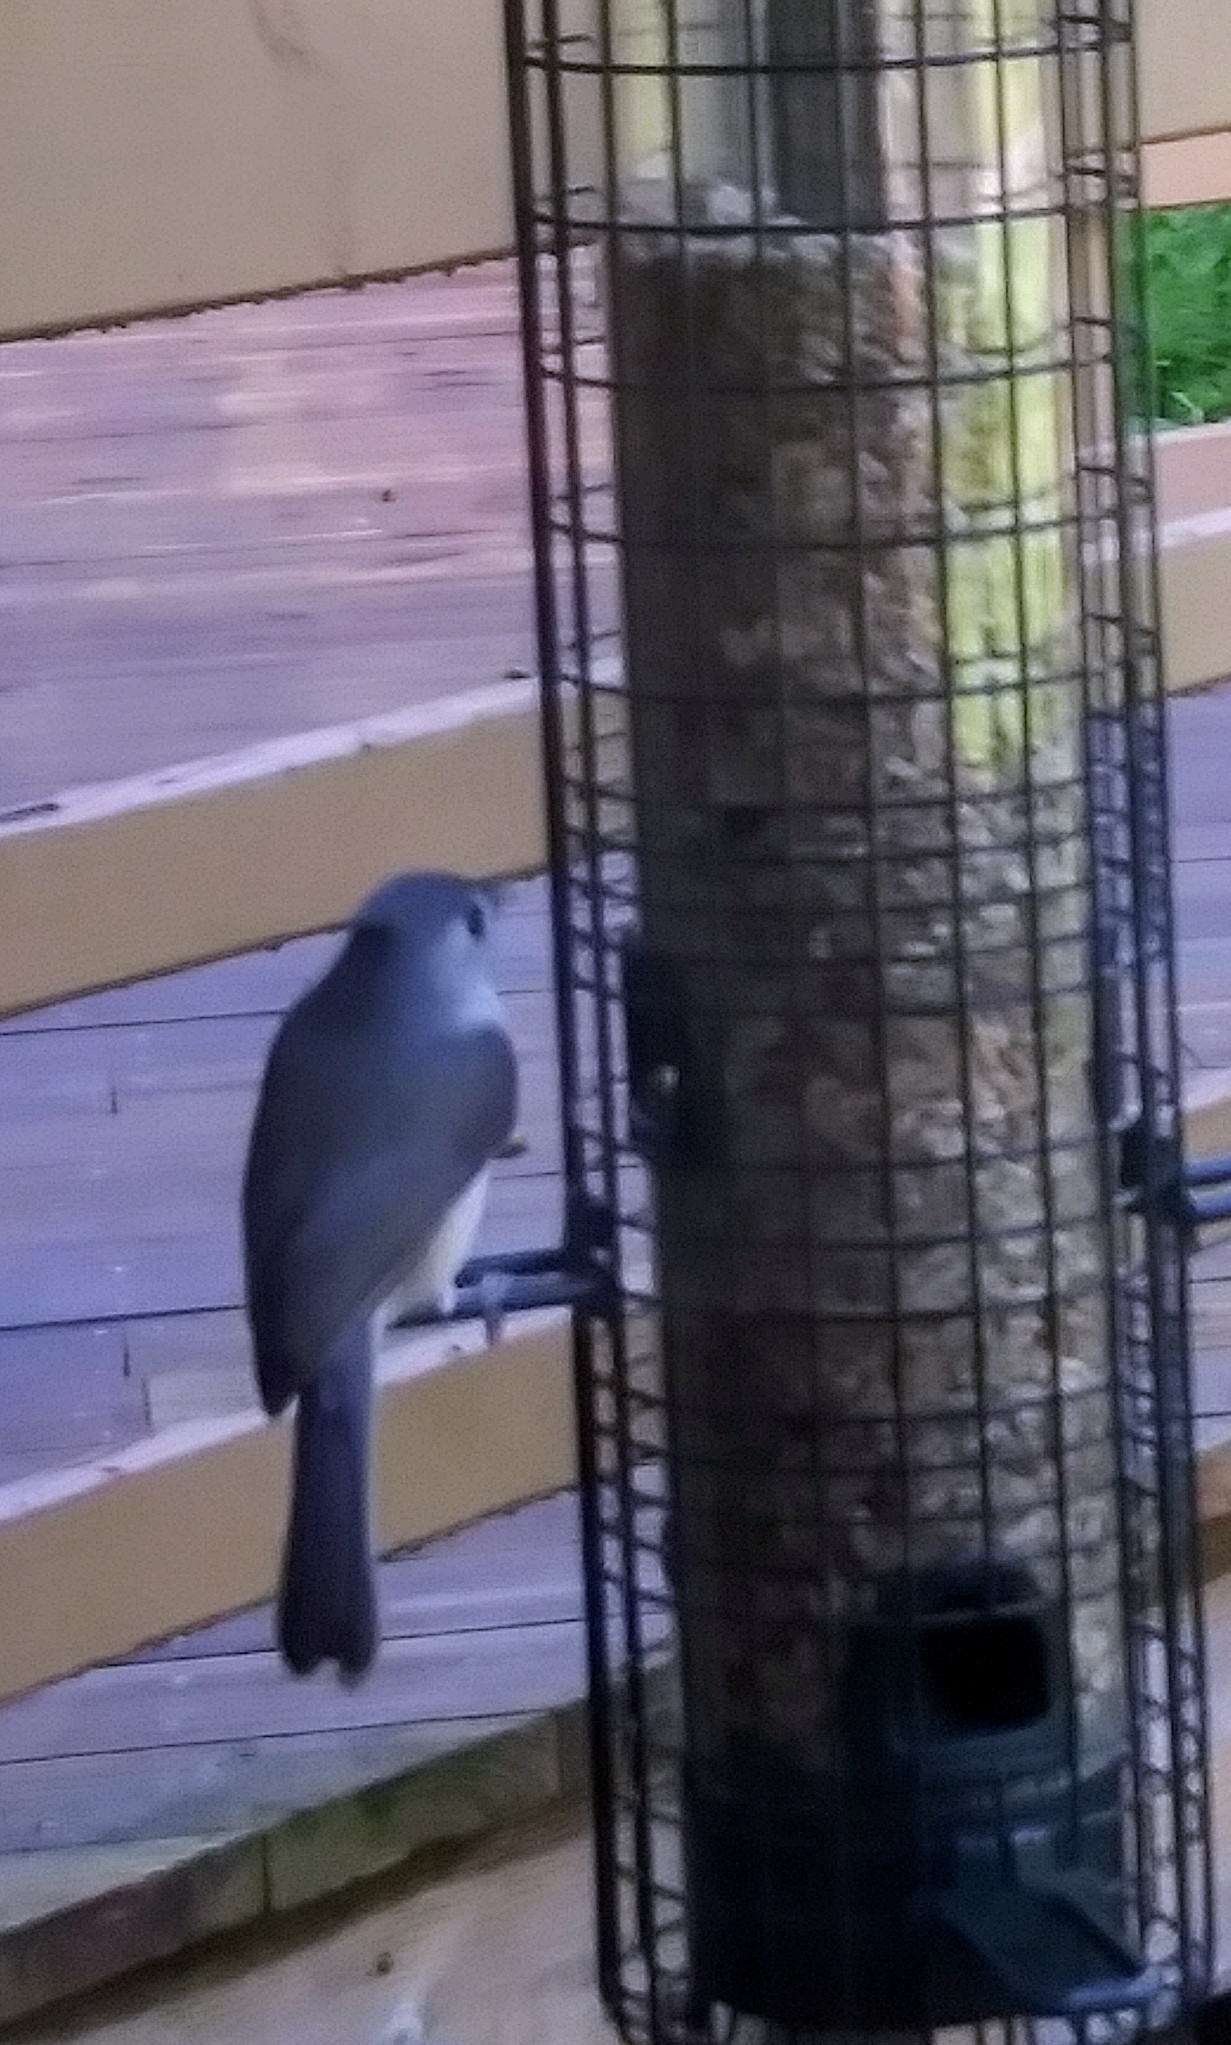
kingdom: Animalia
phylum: Chordata
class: Aves
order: Passeriformes
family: Paridae
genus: Baeolophus
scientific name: Baeolophus bicolor
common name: Tufted titmouse
